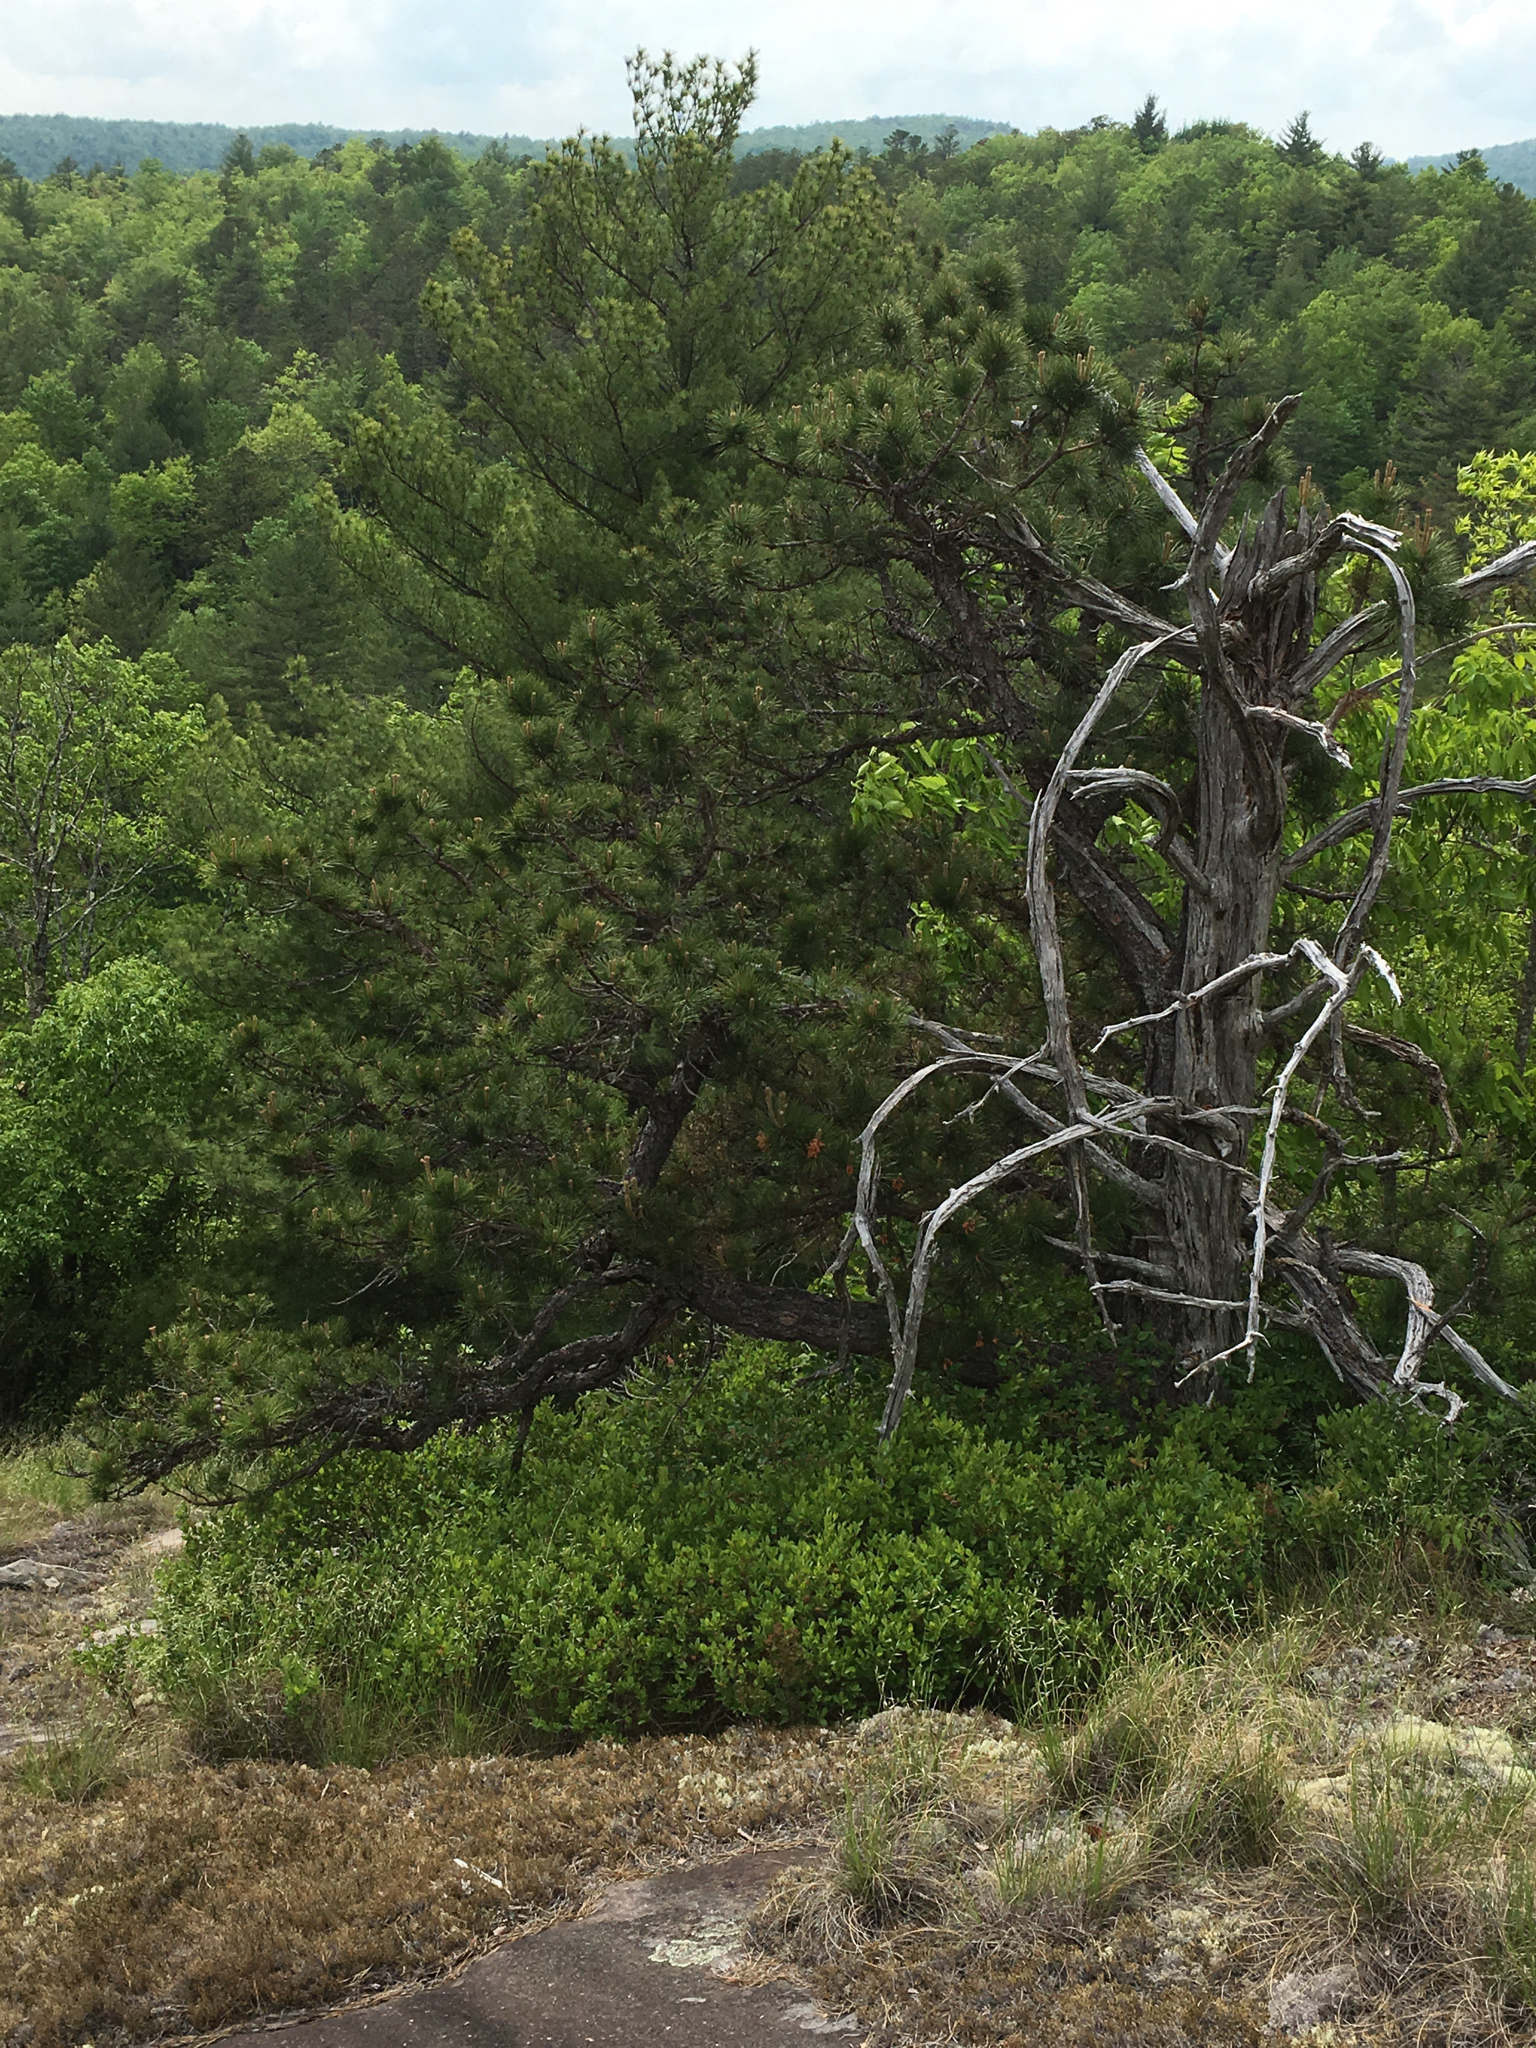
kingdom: Plantae
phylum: Tracheophyta
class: Pinopsida
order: Pinales
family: Pinaceae
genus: Pinus
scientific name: Pinus rigida
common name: Pitch pine
